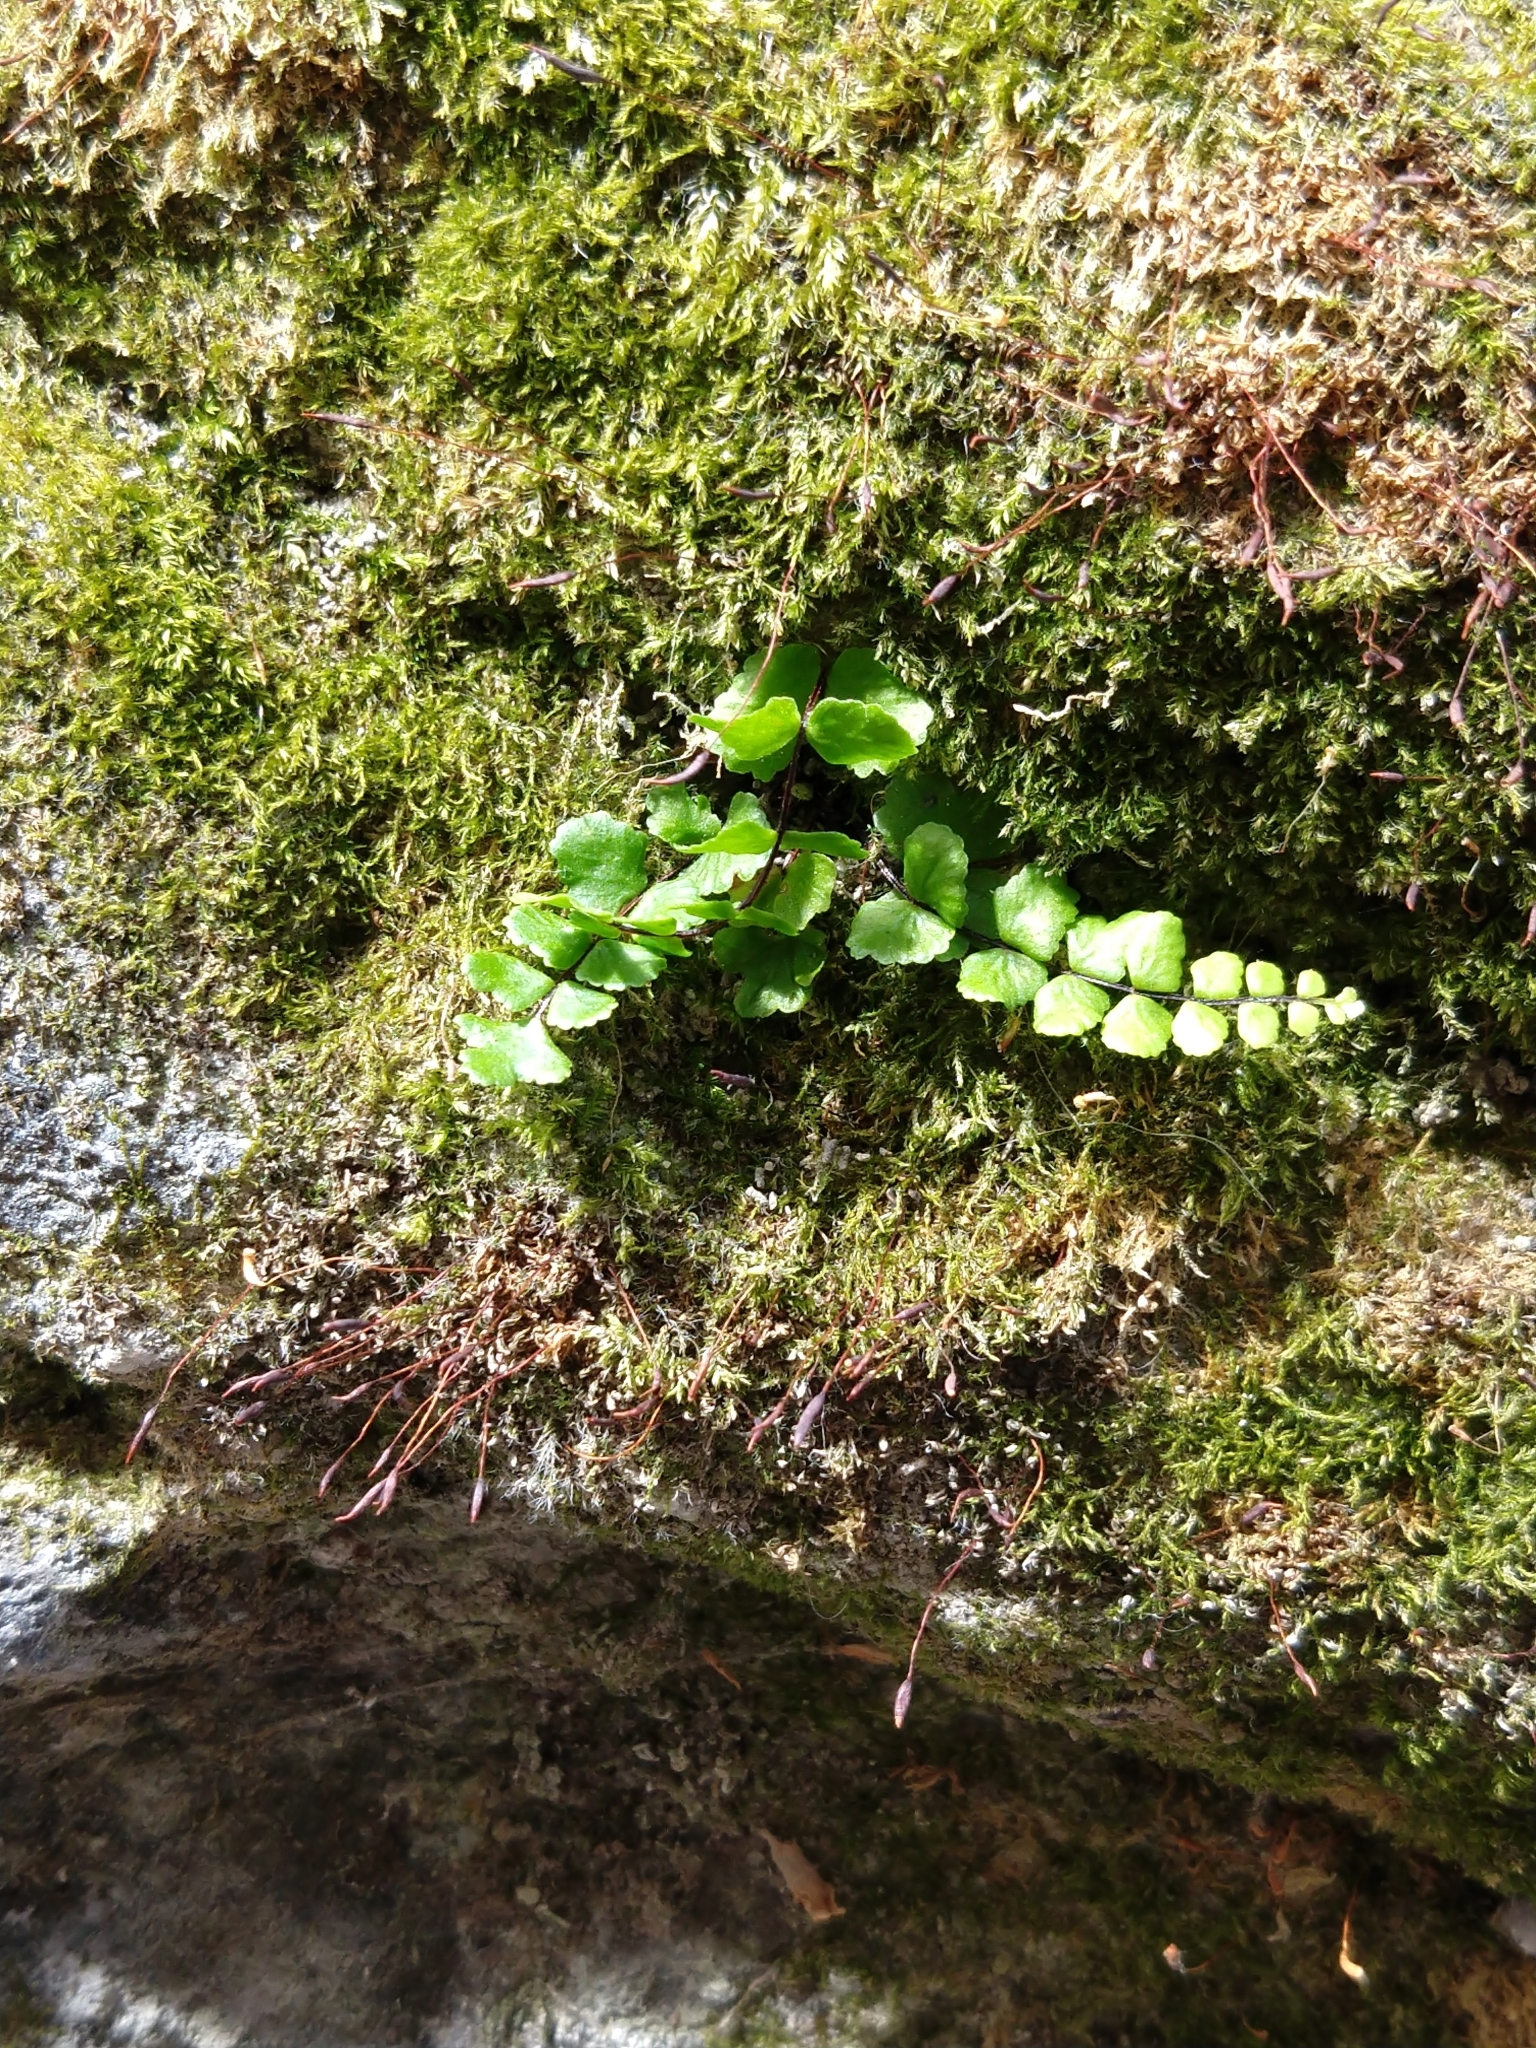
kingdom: Plantae
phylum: Tracheophyta
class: Polypodiopsida
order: Polypodiales
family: Aspleniaceae
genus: Asplenium
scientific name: Asplenium trichomanes
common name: Maidenhair spleenwort
